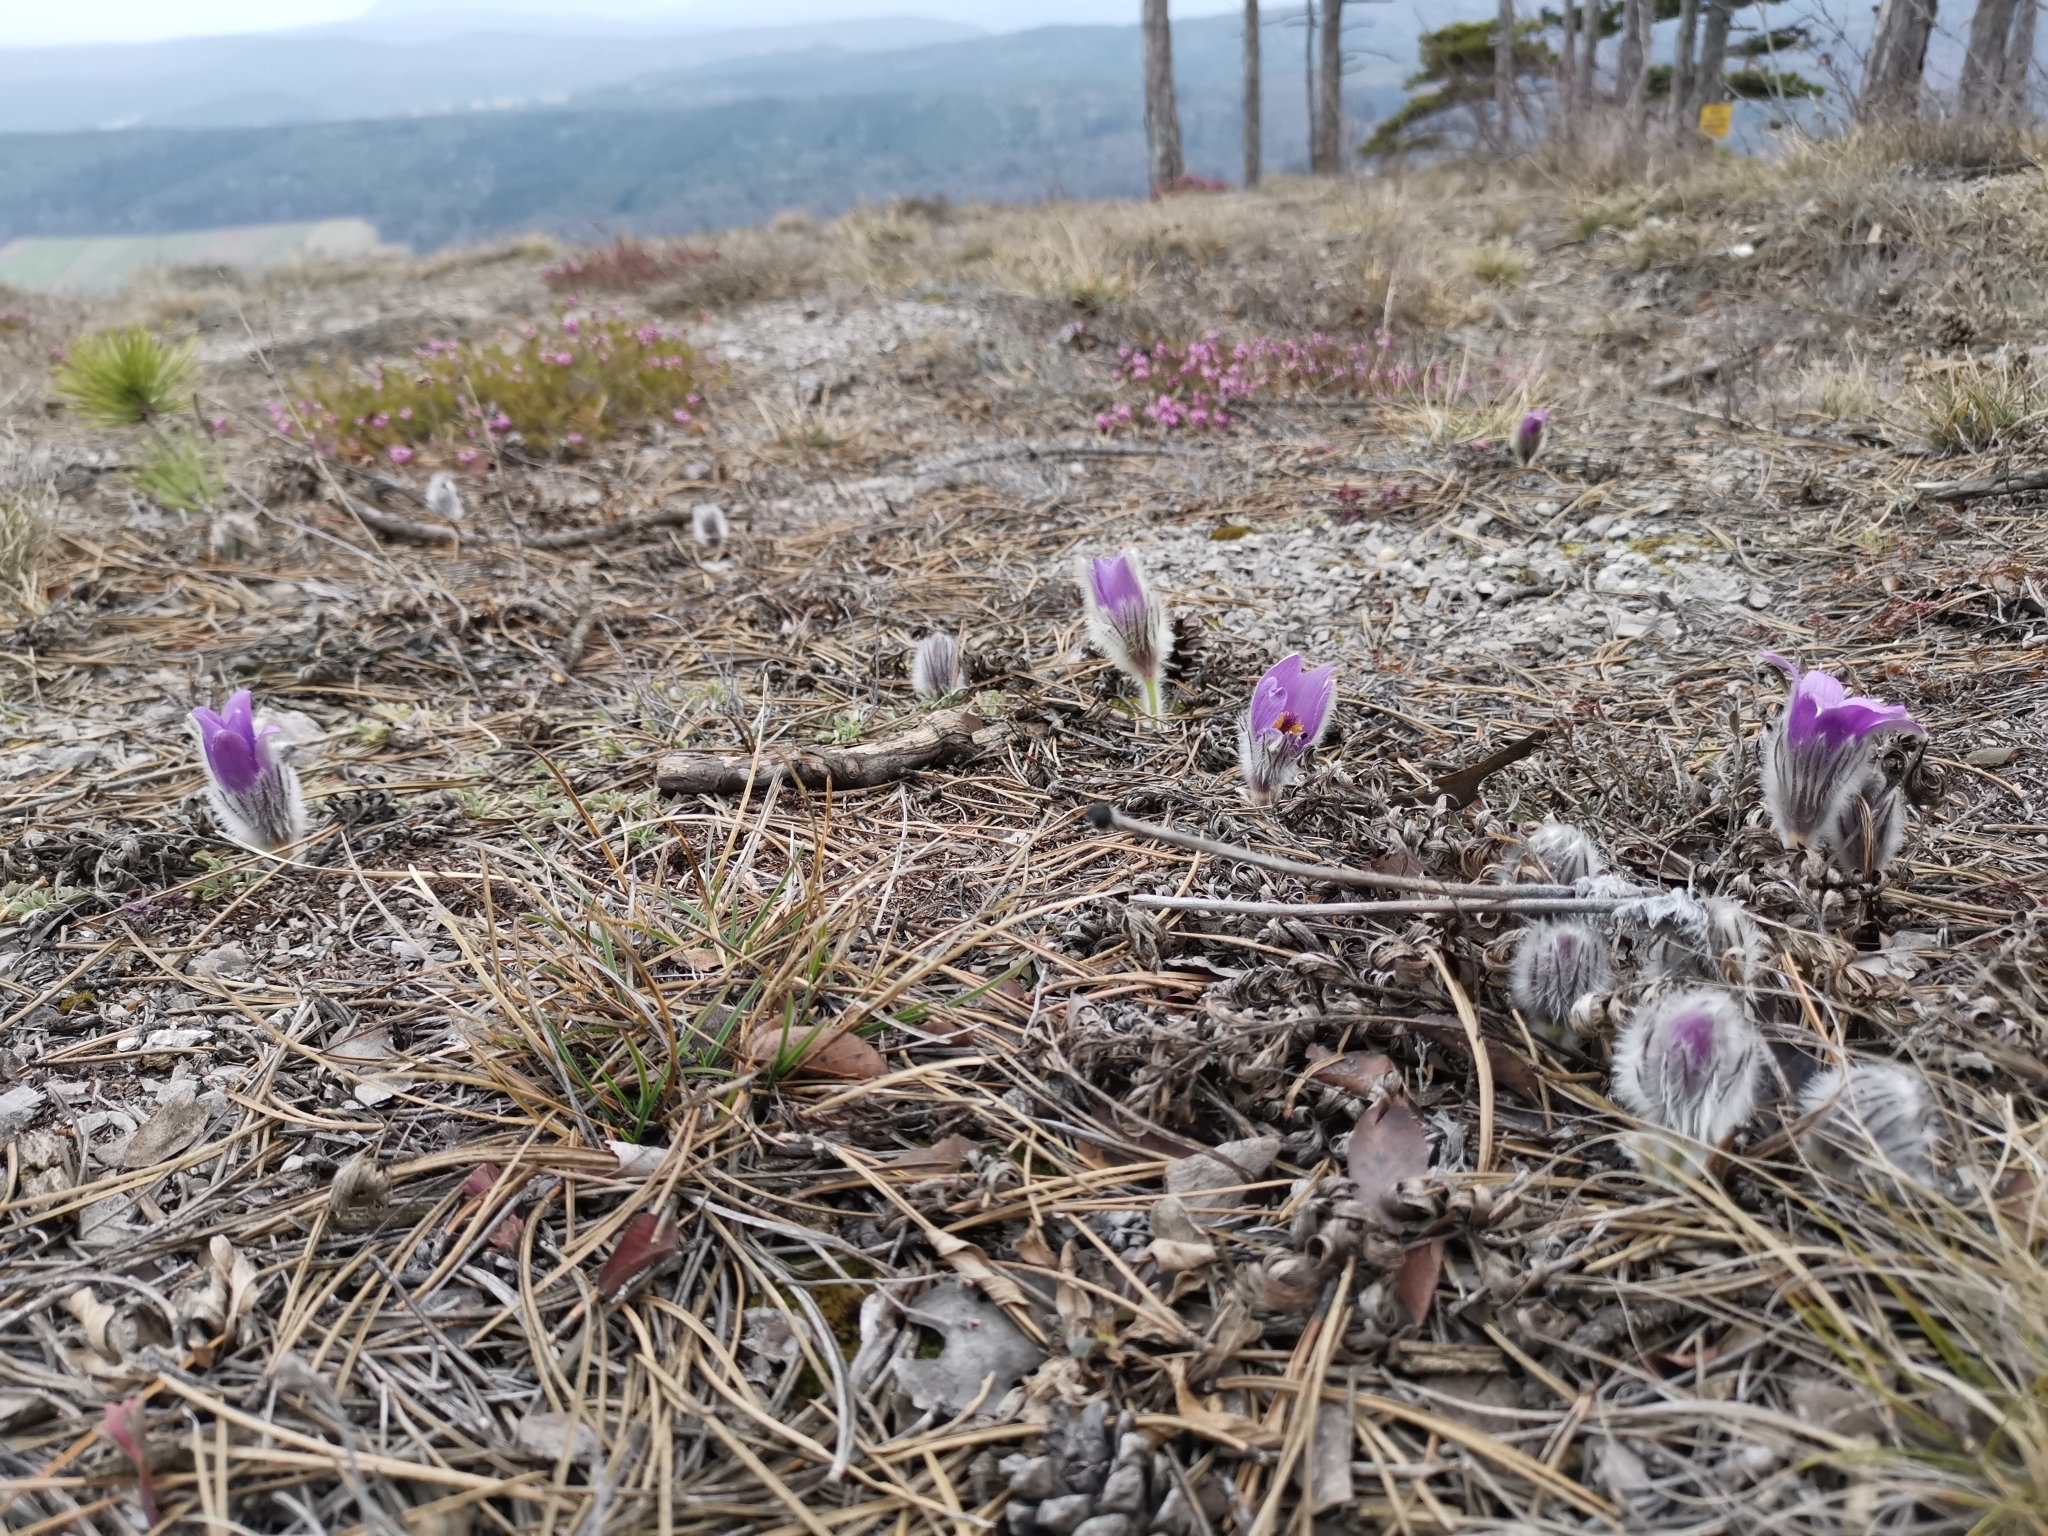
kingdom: Plantae
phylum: Tracheophyta
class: Magnoliopsida
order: Ranunculales
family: Ranunculaceae
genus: Pulsatilla
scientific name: Pulsatilla grandis
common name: Greater pasque flower
